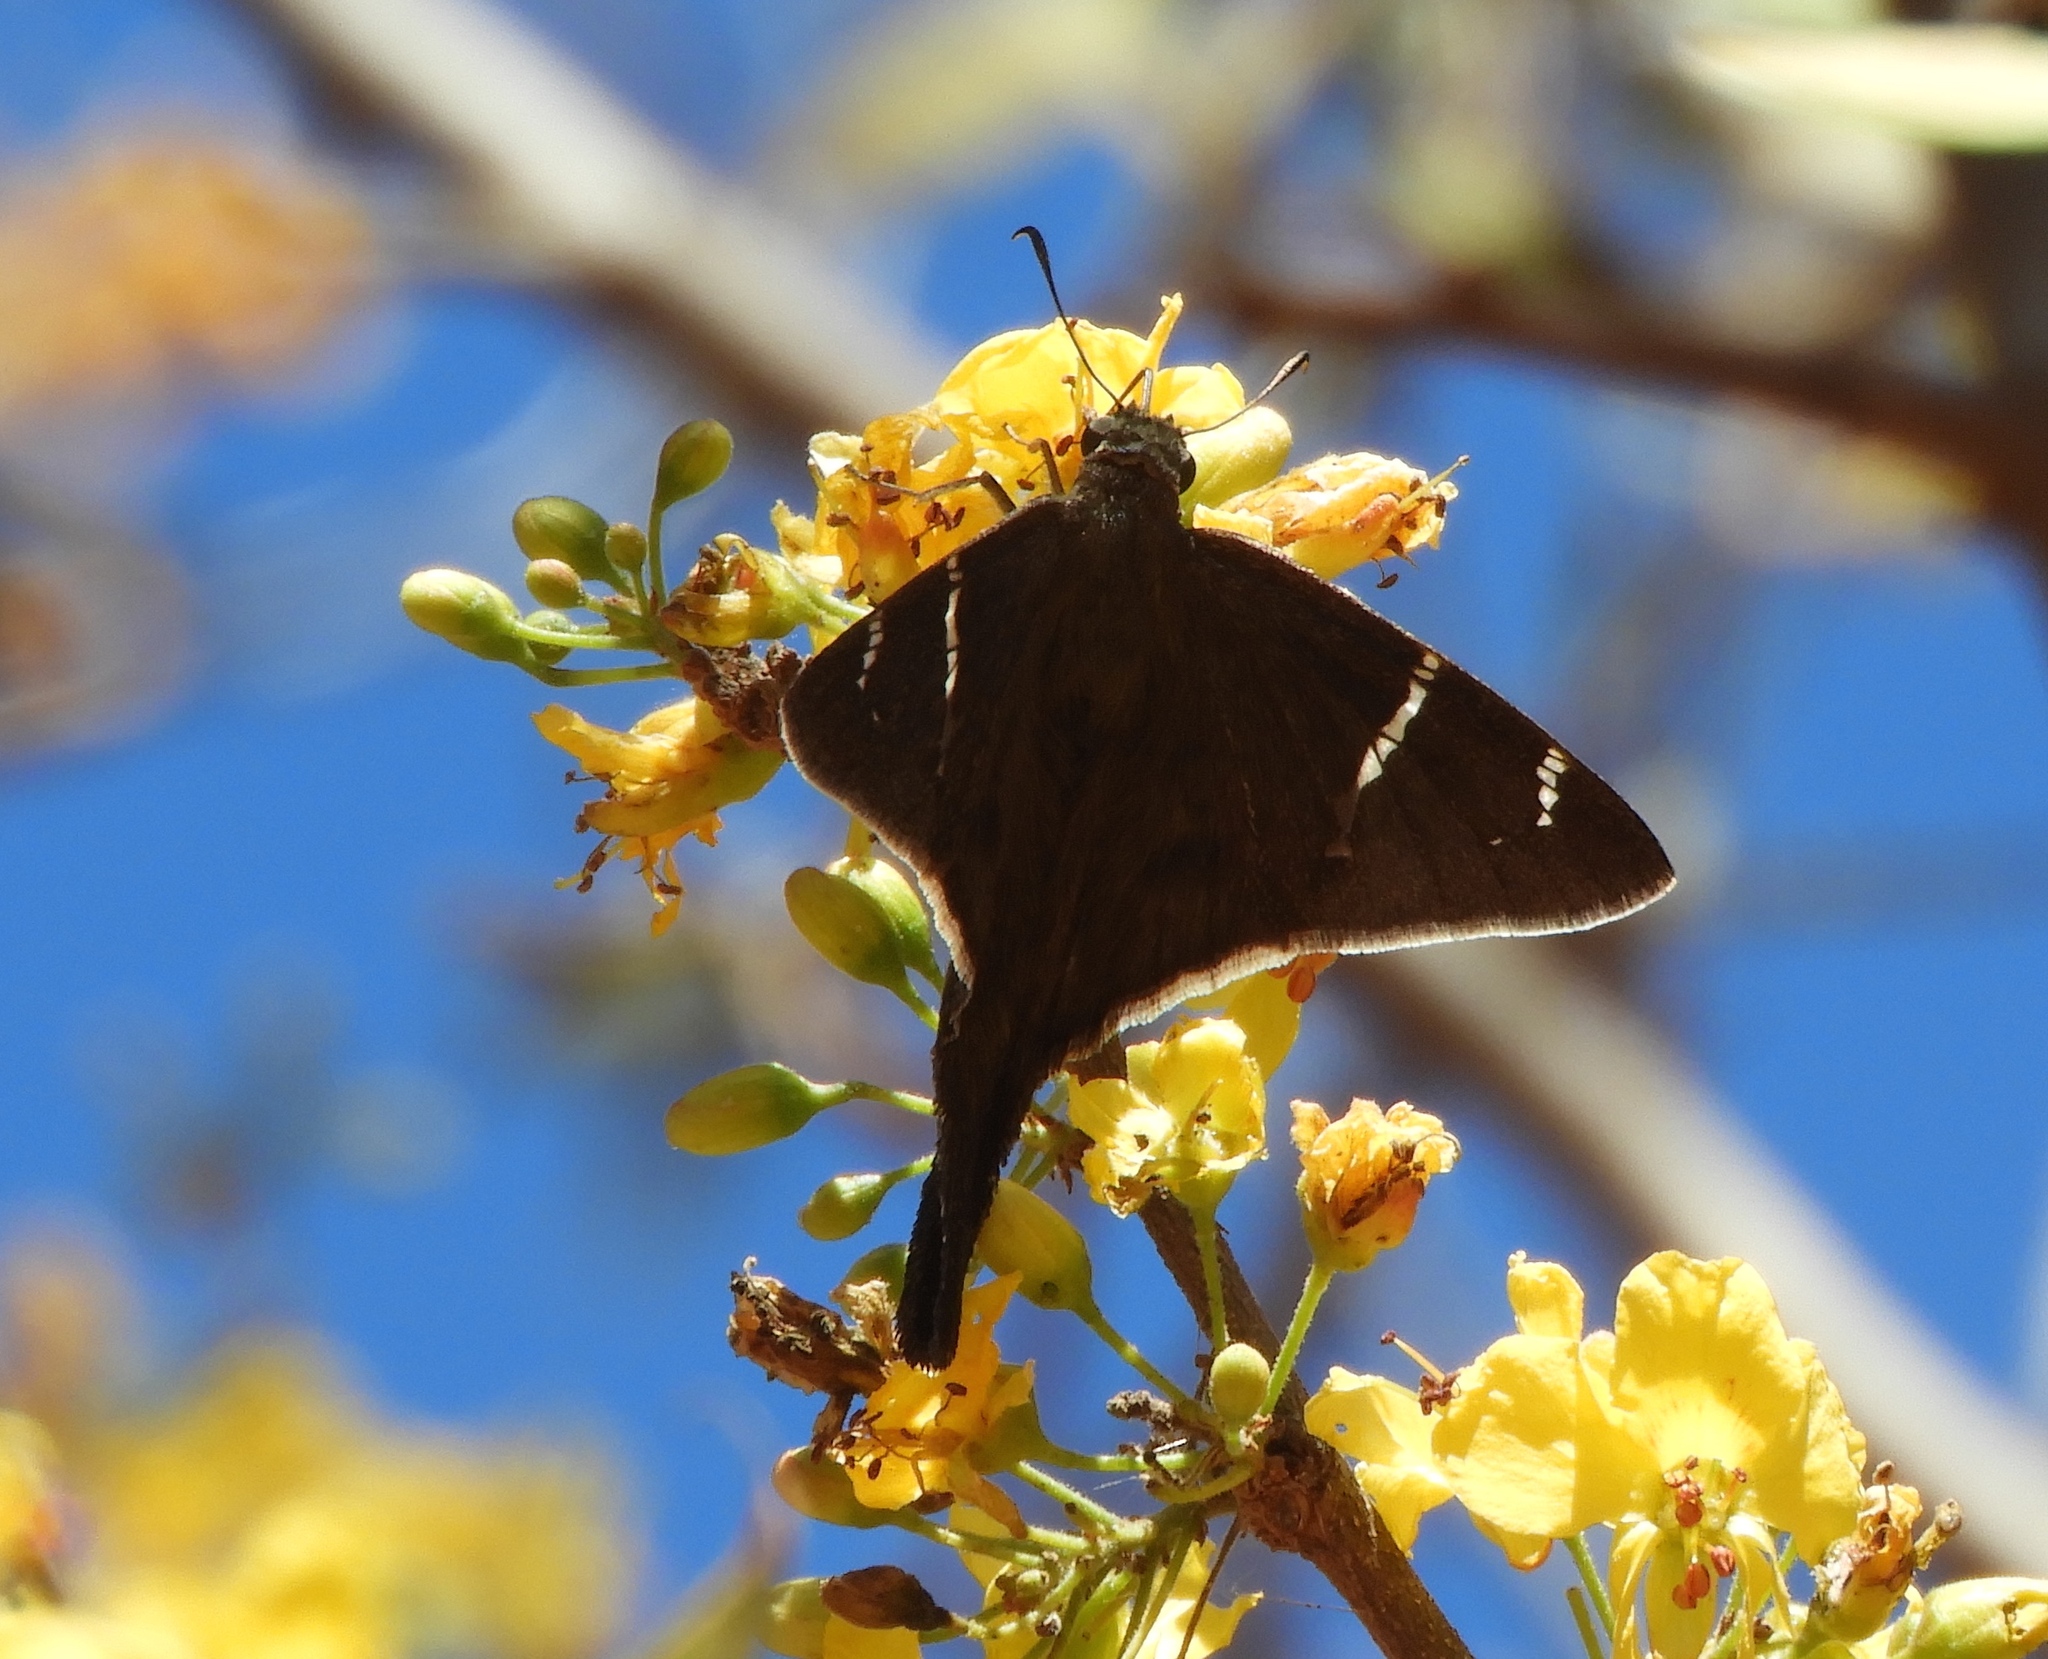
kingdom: Animalia
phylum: Arthropoda
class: Insecta
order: Lepidoptera
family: Hesperiidae
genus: Urbanus
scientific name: Urbanus procne
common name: Brown longtail
